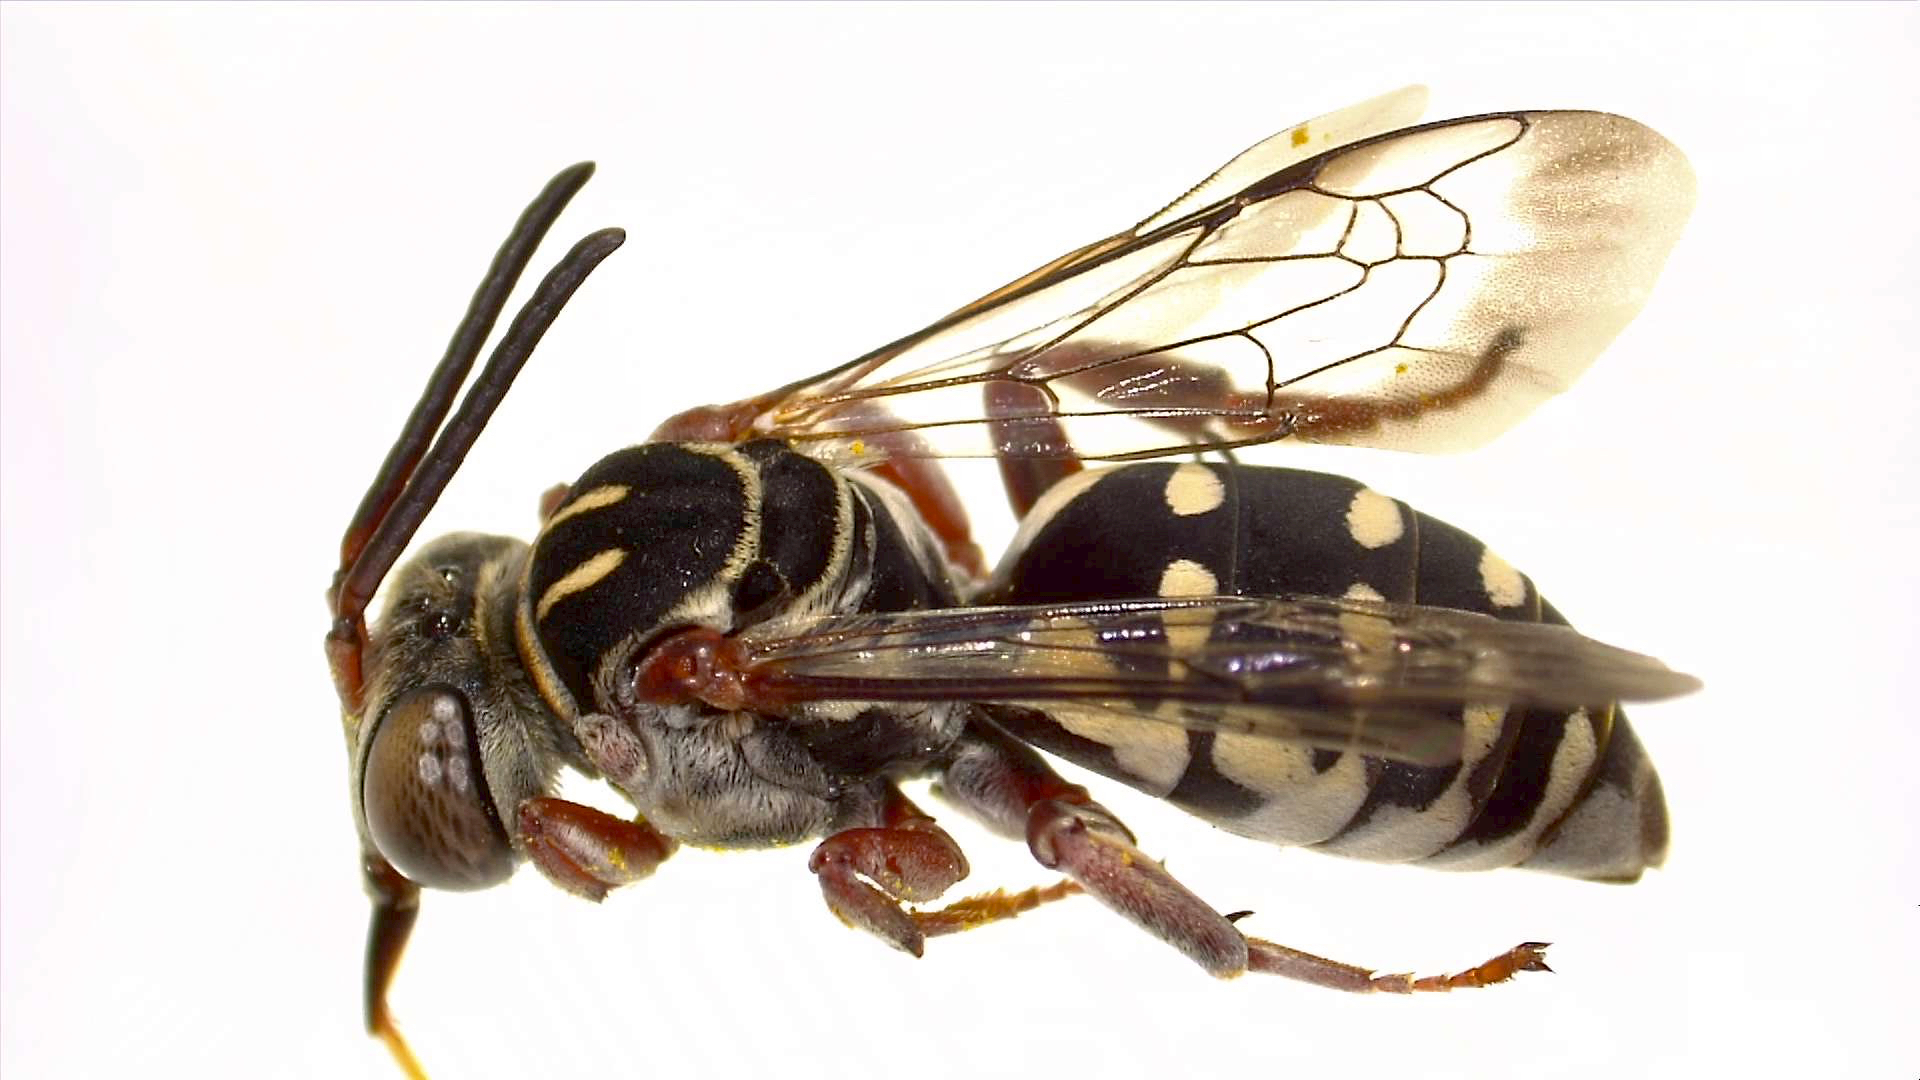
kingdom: Animalia
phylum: Arthropoda
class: Insecta
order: Hymenoptera
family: Apidae
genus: Triepeolus
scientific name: Triepeolus verbesinae
